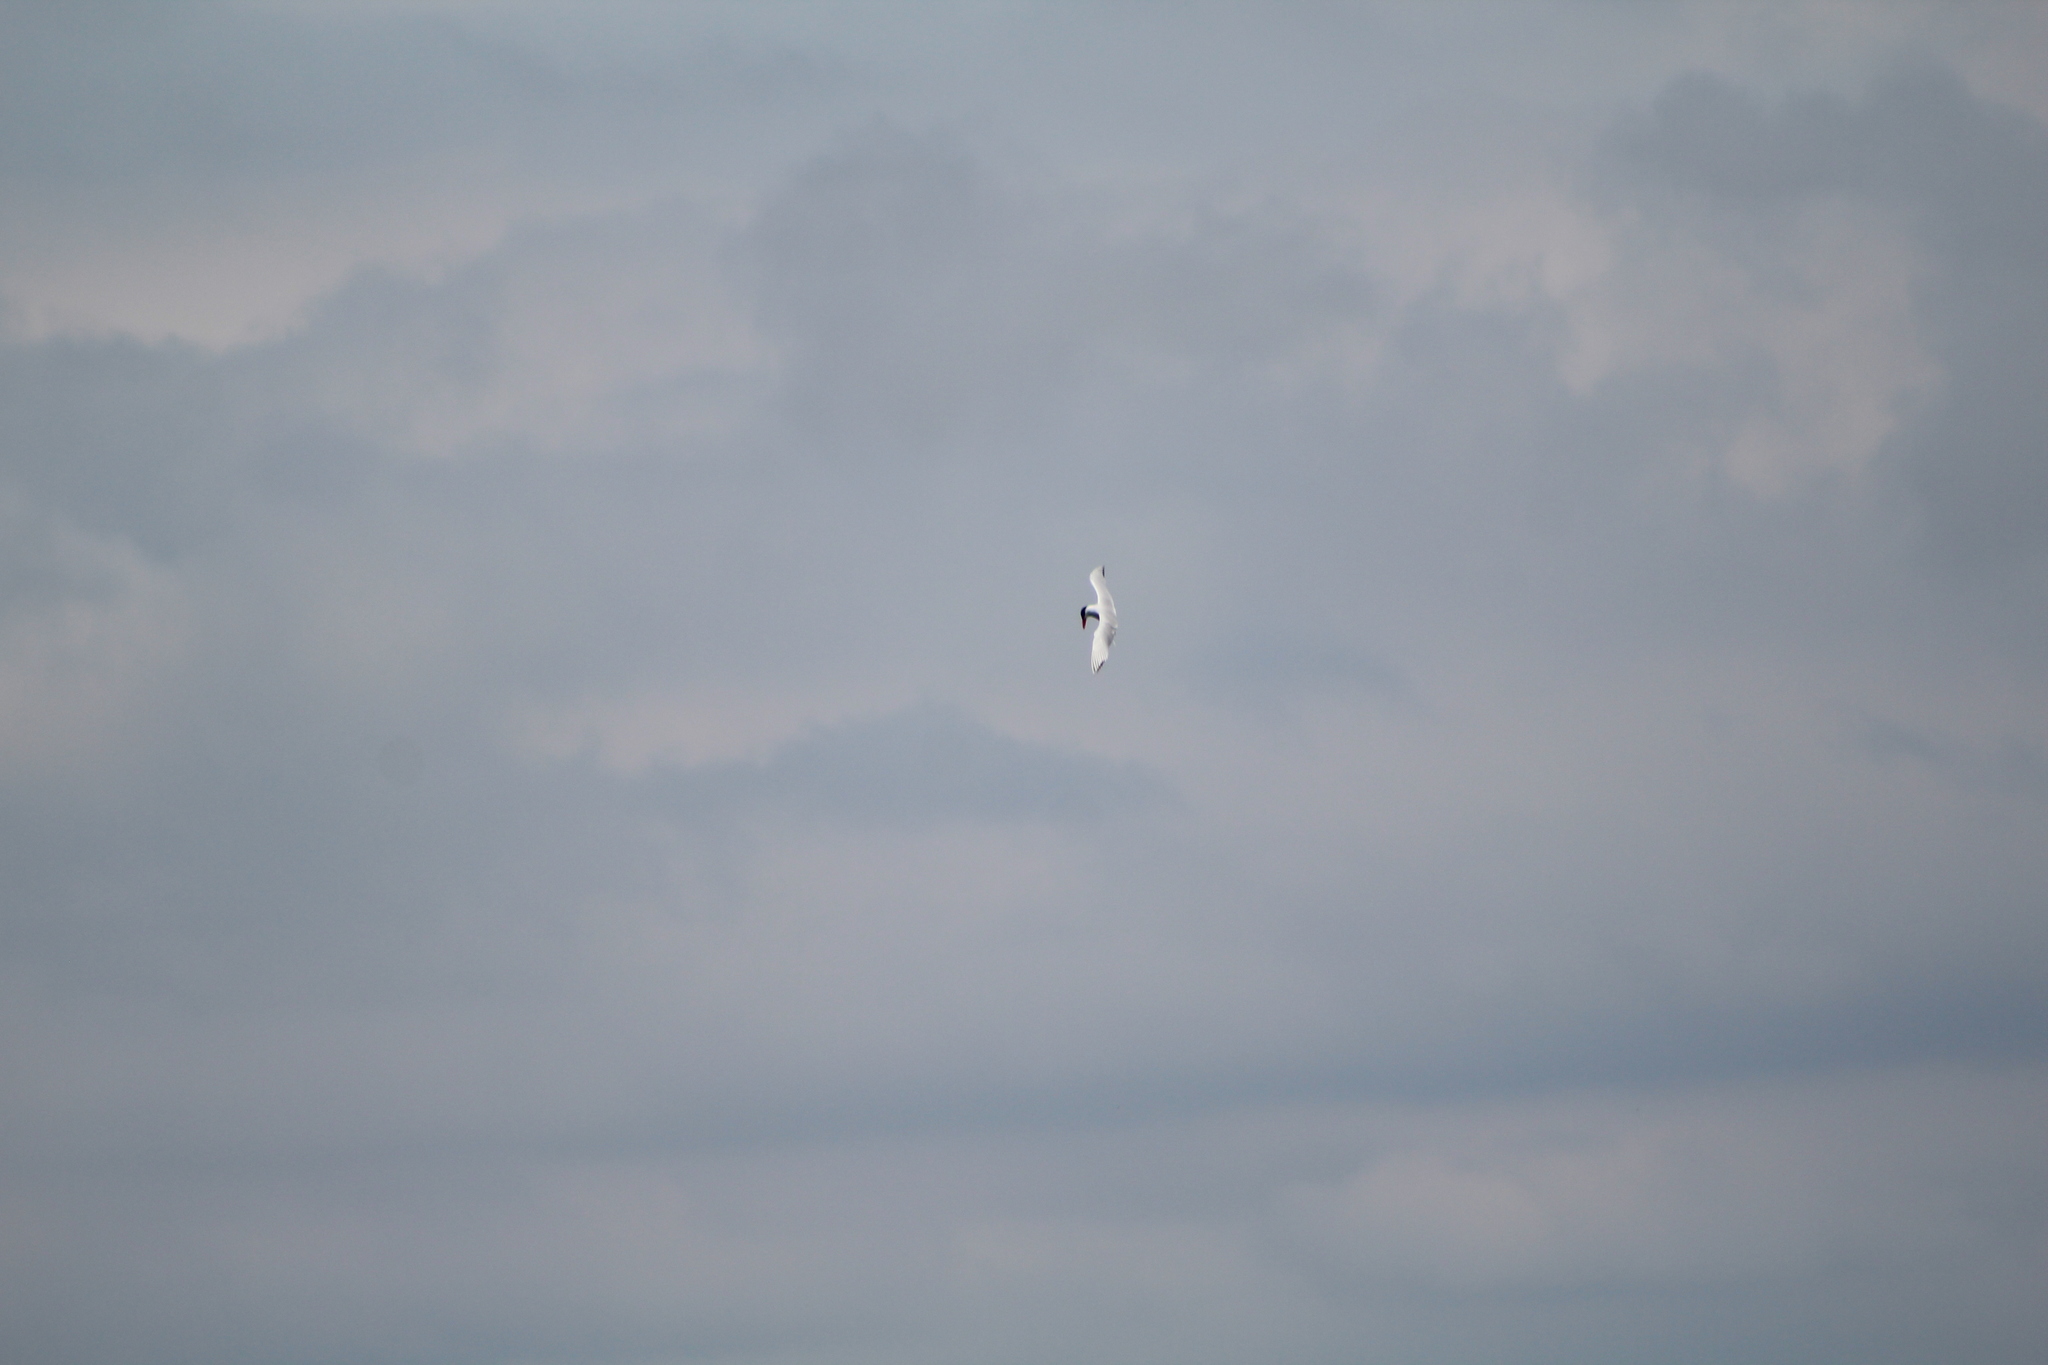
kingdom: Animalia
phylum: Chordata
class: Aves
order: Charadriiformes
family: Laridae
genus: Hydroprogne
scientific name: Hydroprogne caspia
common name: Caspian tern
